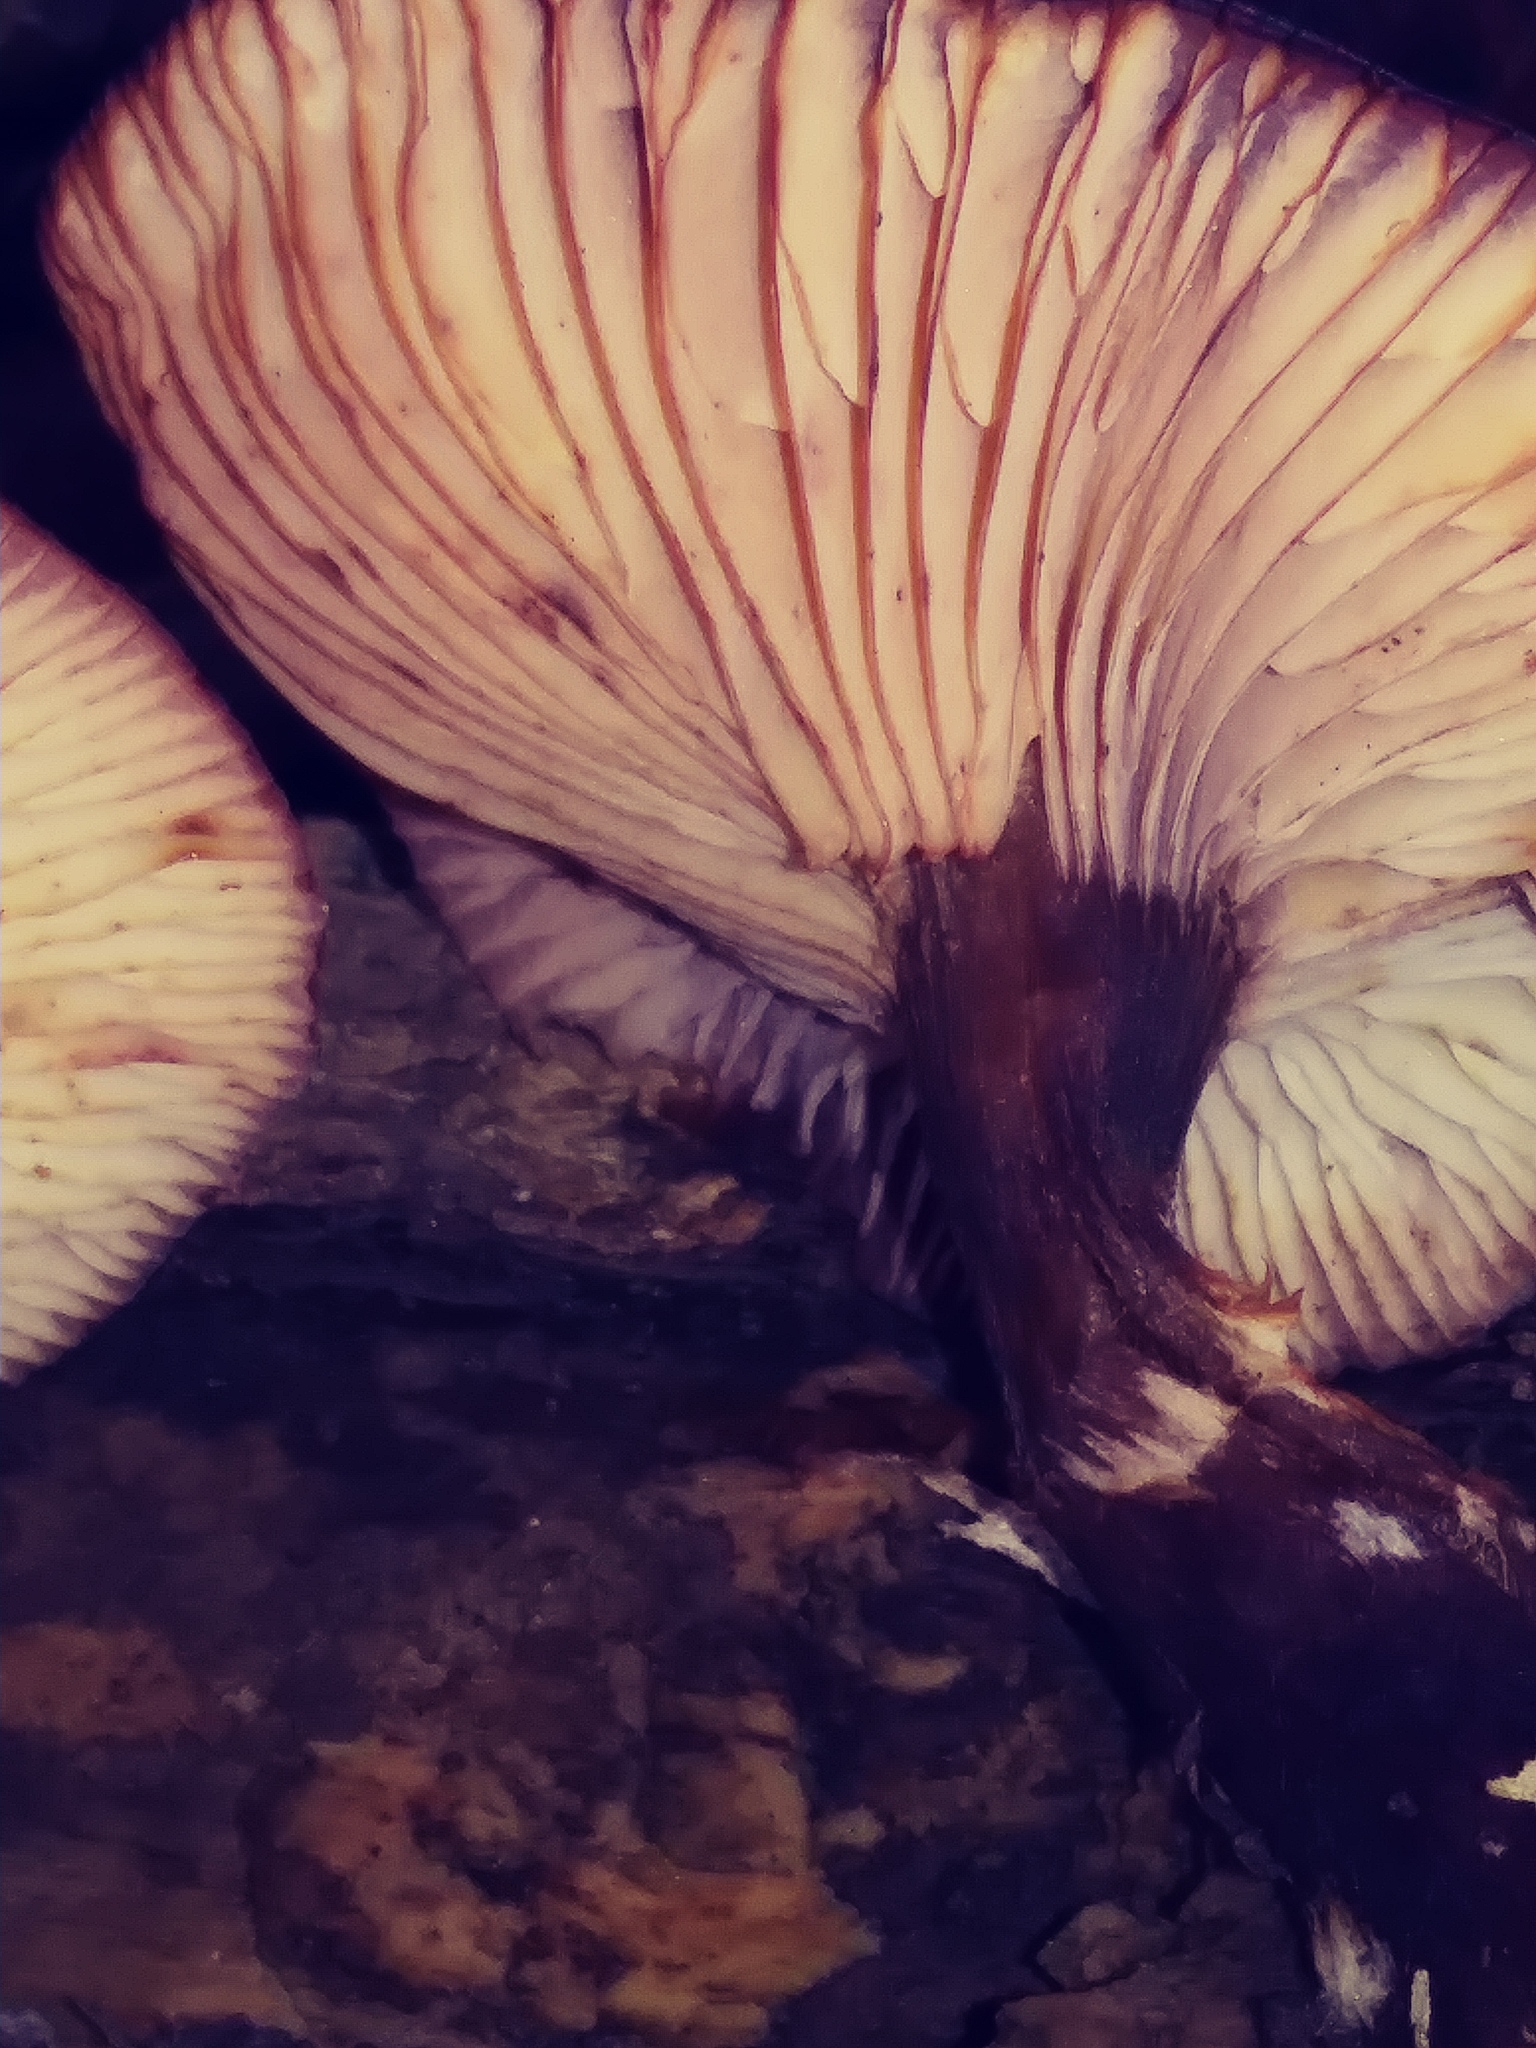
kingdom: Fungi
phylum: Basidiomycota
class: Agaricomycetes
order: Agaricales
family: Physalacriaceae
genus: Armillaria
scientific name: Armillaria gallica
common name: Bulbous honey fungus
